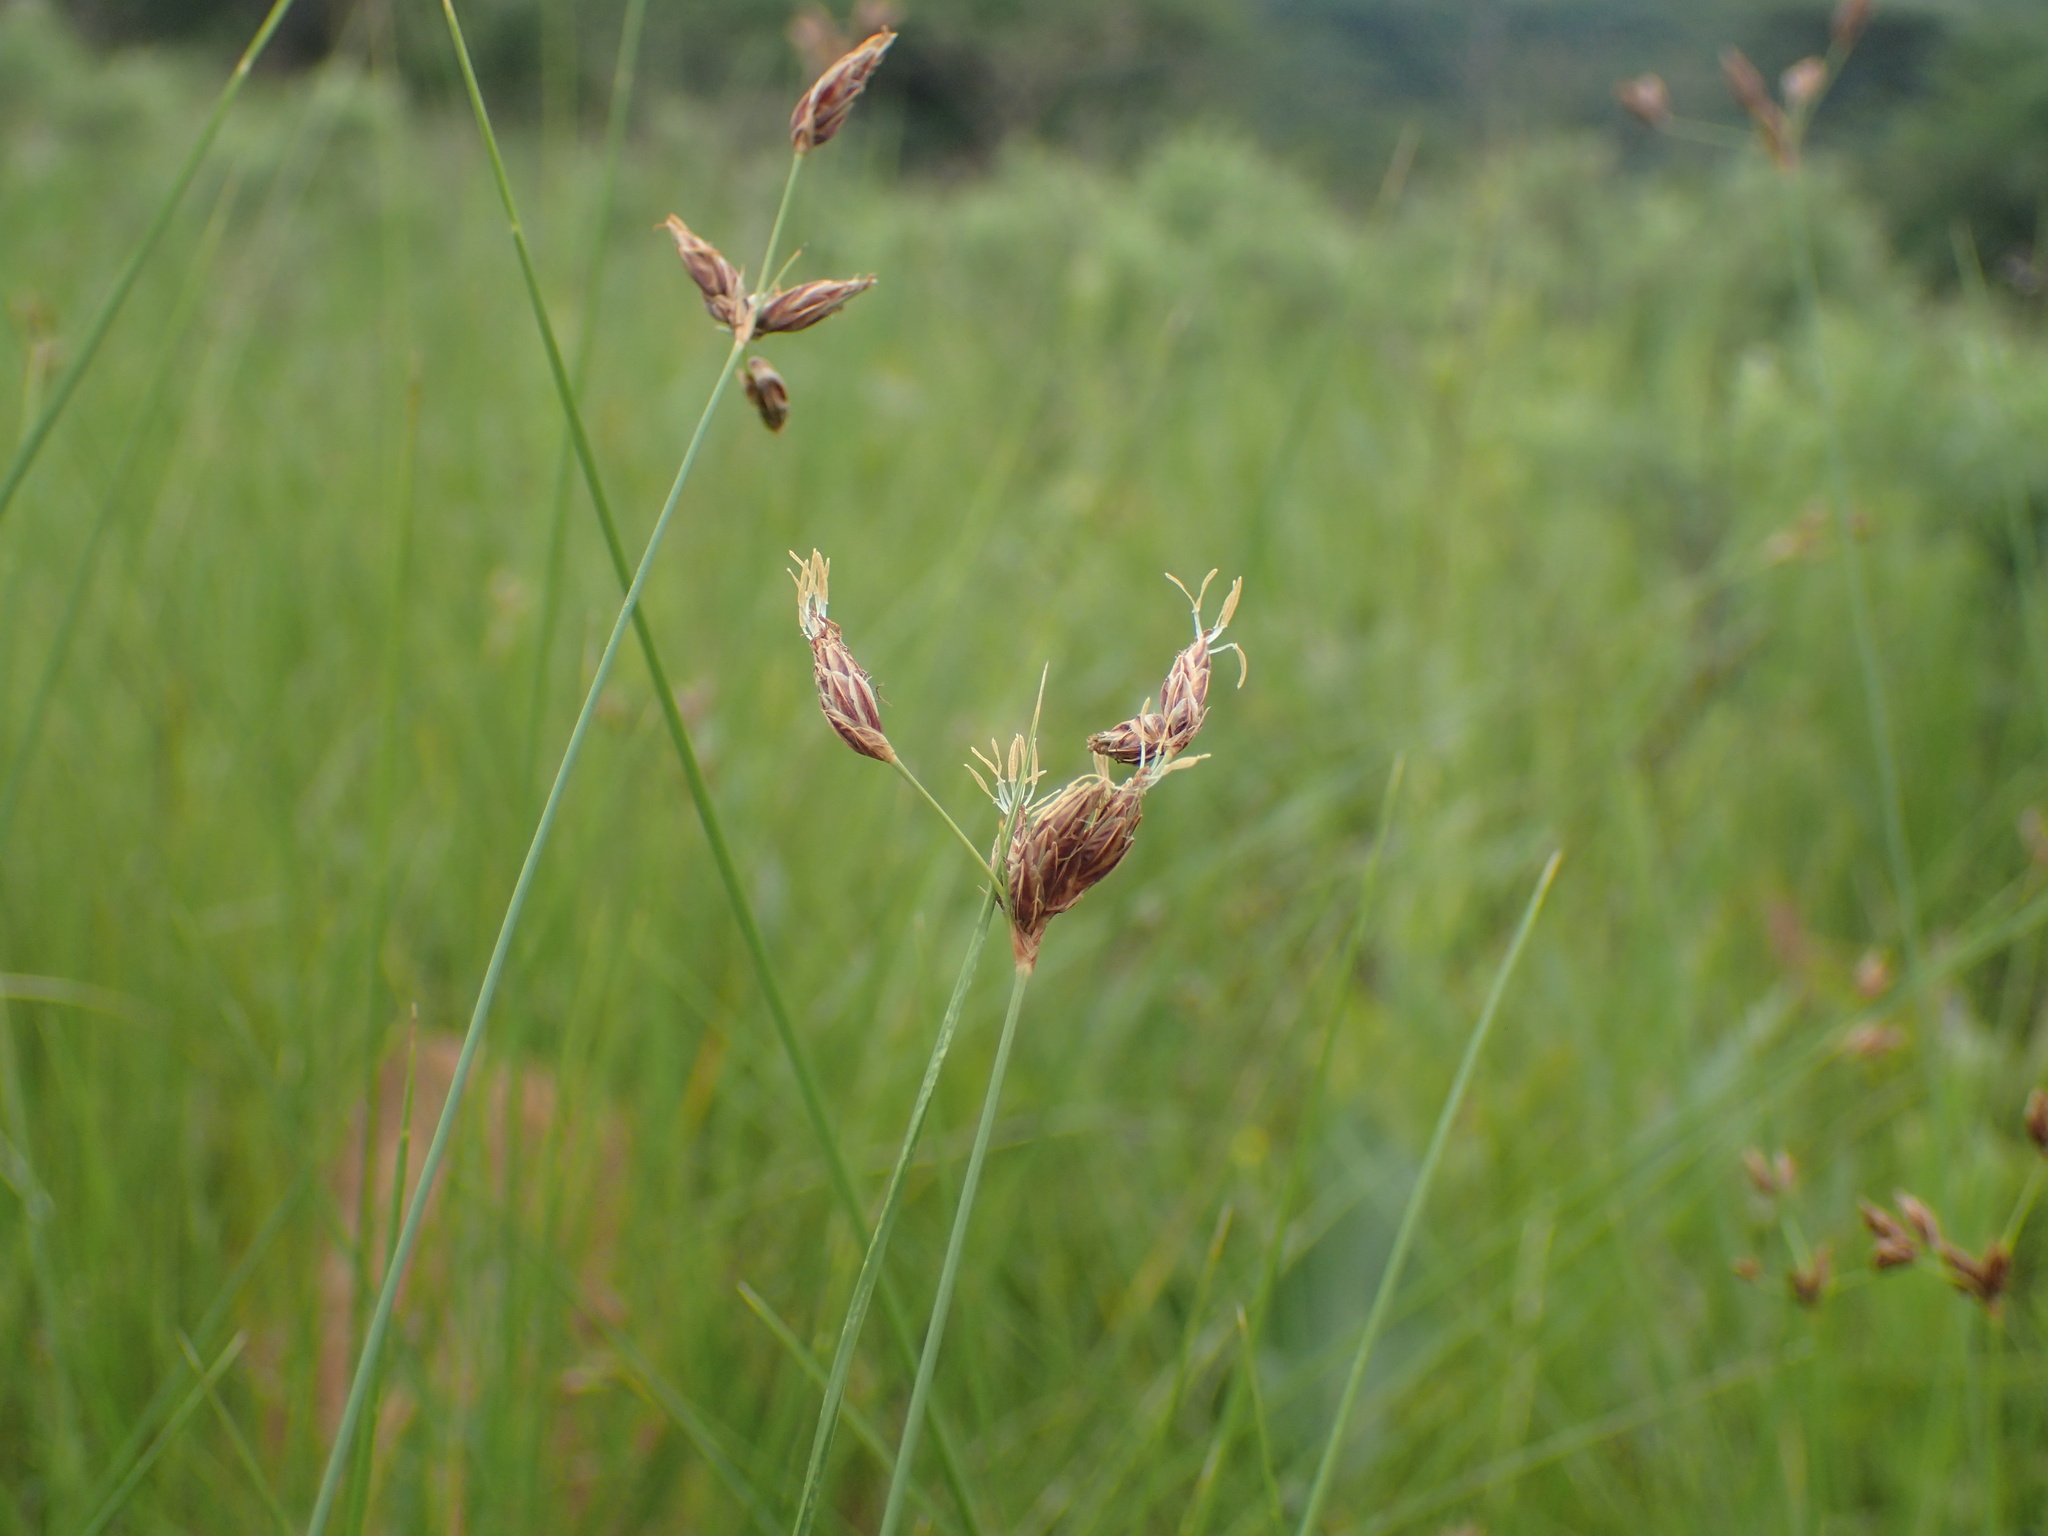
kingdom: Plantae
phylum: Tracheophyta
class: Liliopsida
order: Poales
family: Cyperaceae
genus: Fimbristylis
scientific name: Fimbristylis dichotoma
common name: Forked fimbry
